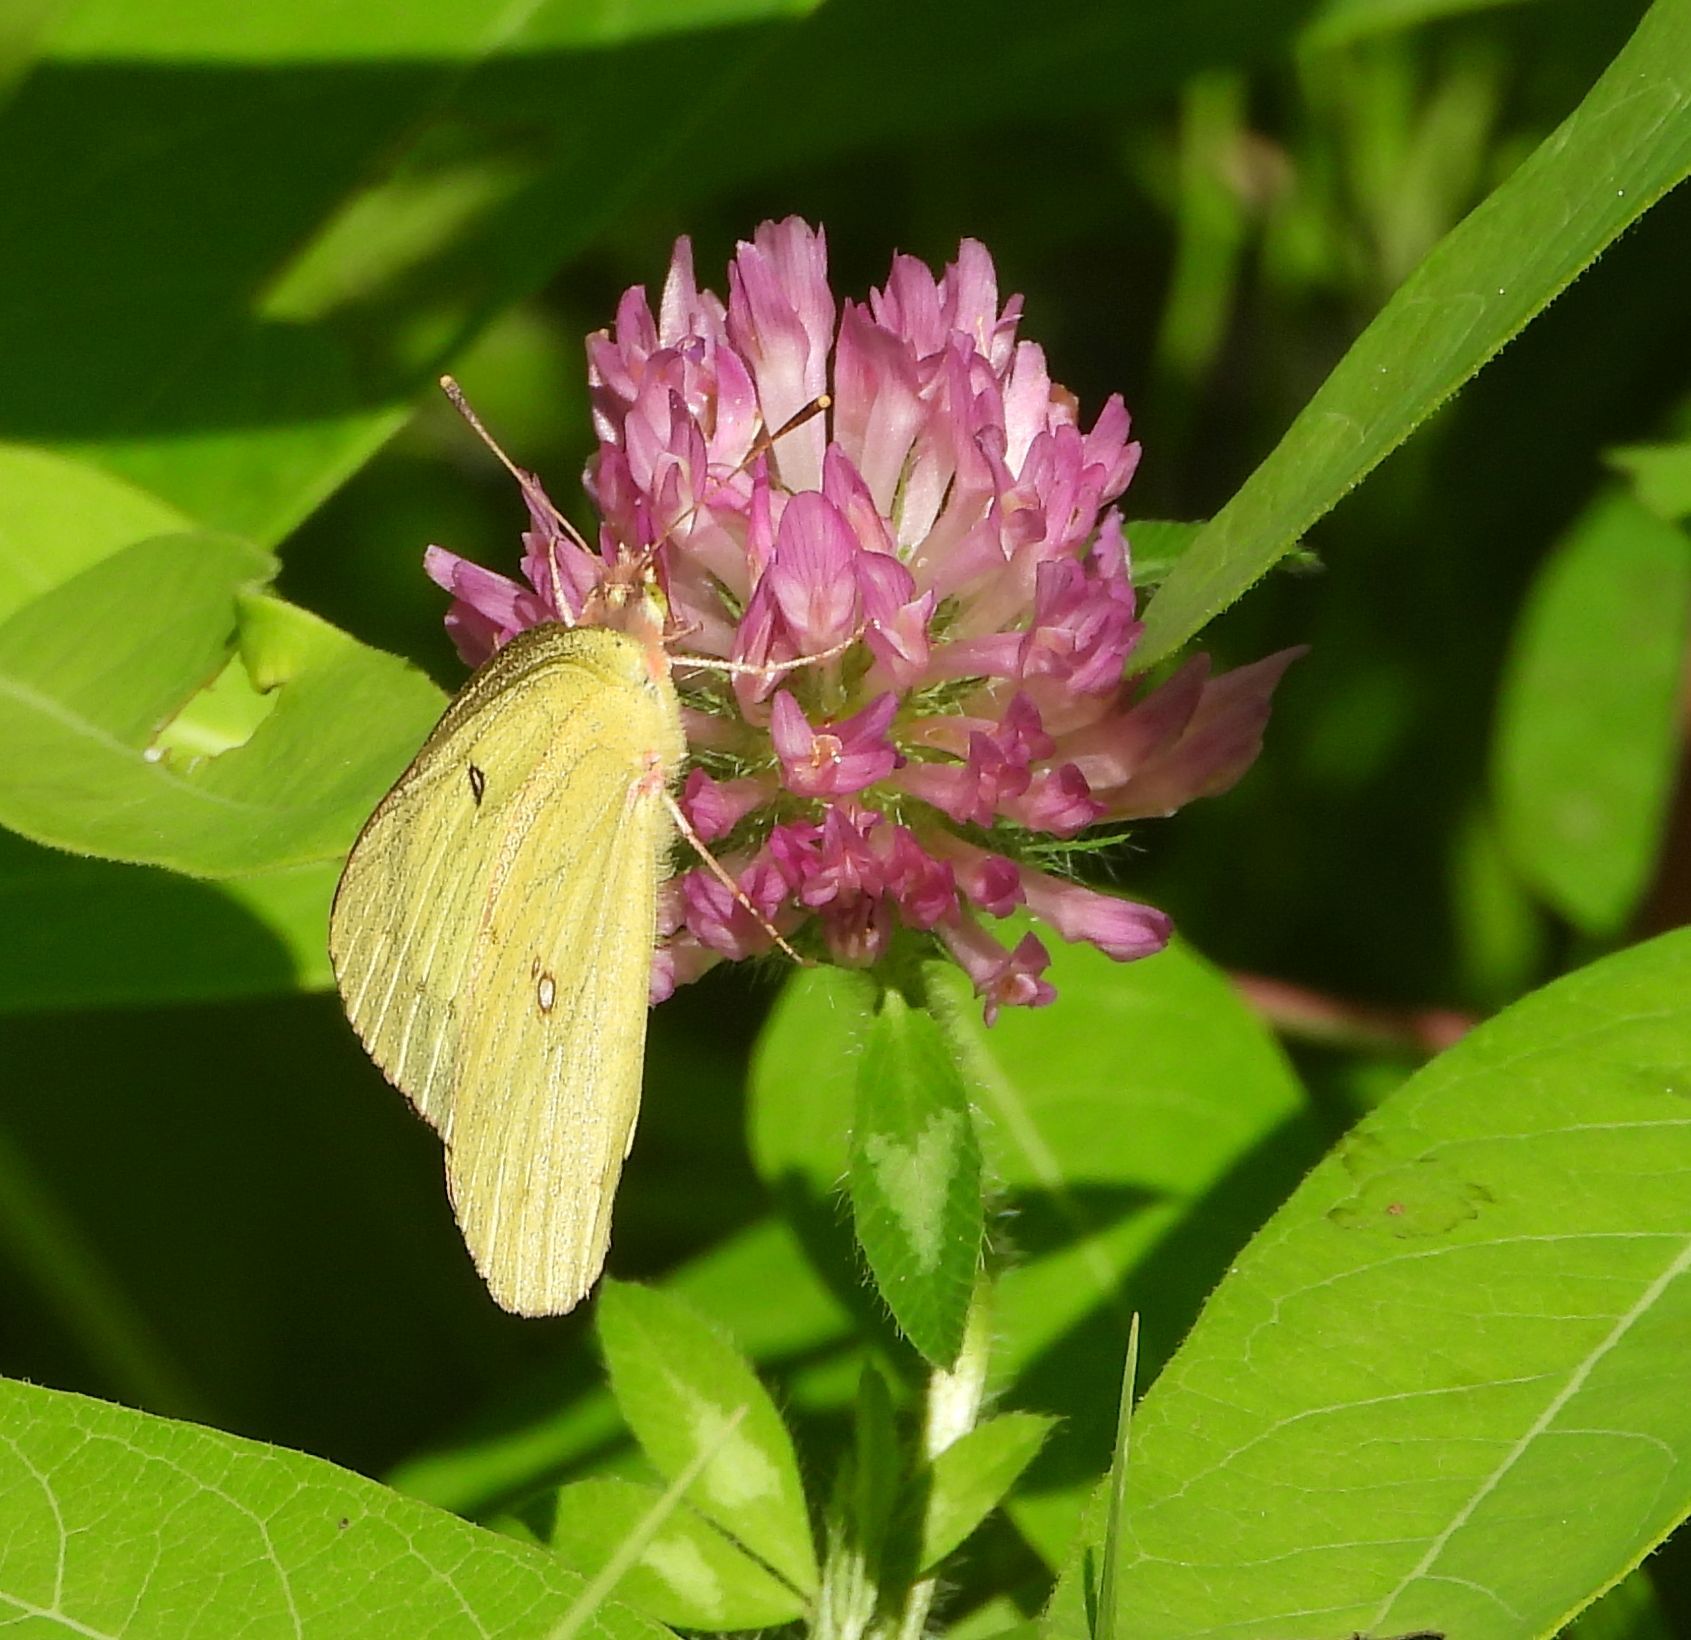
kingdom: Animalia
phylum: Arthropoda
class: Insecta
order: Lepidoptera
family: Pieridae
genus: Colias
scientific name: Colias philodice
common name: Clouded sulphur
